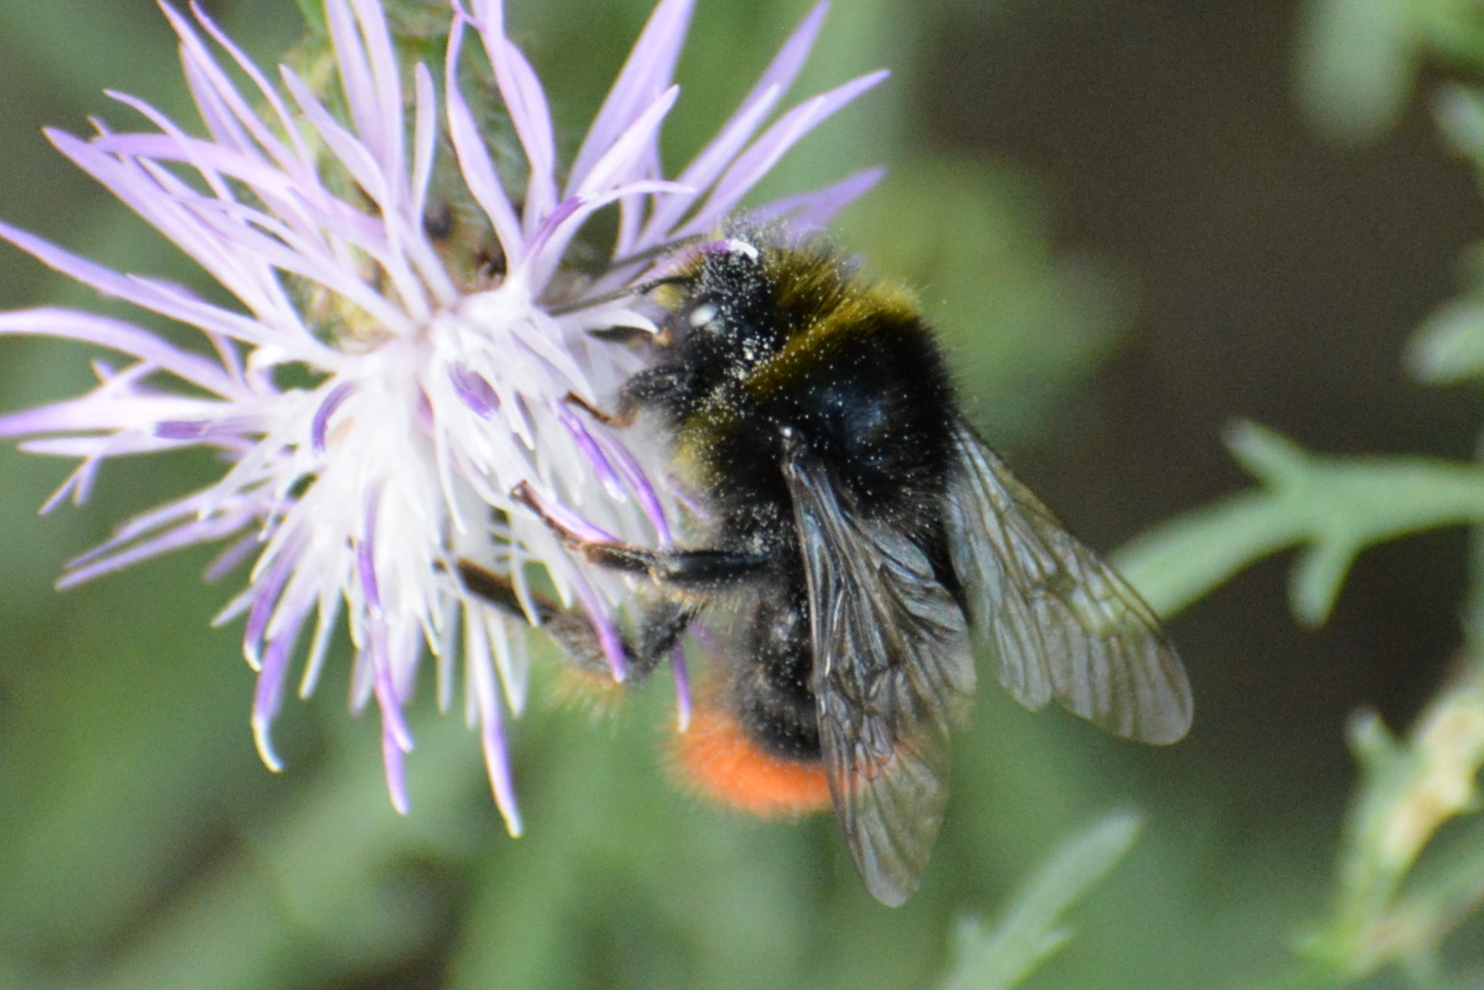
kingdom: Animalia
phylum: Arthropoda
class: Insecta
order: Hymenoptera
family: Apidae
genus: Bombus
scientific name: Bombus lapidarius
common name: Large red-tailed humble-bee
